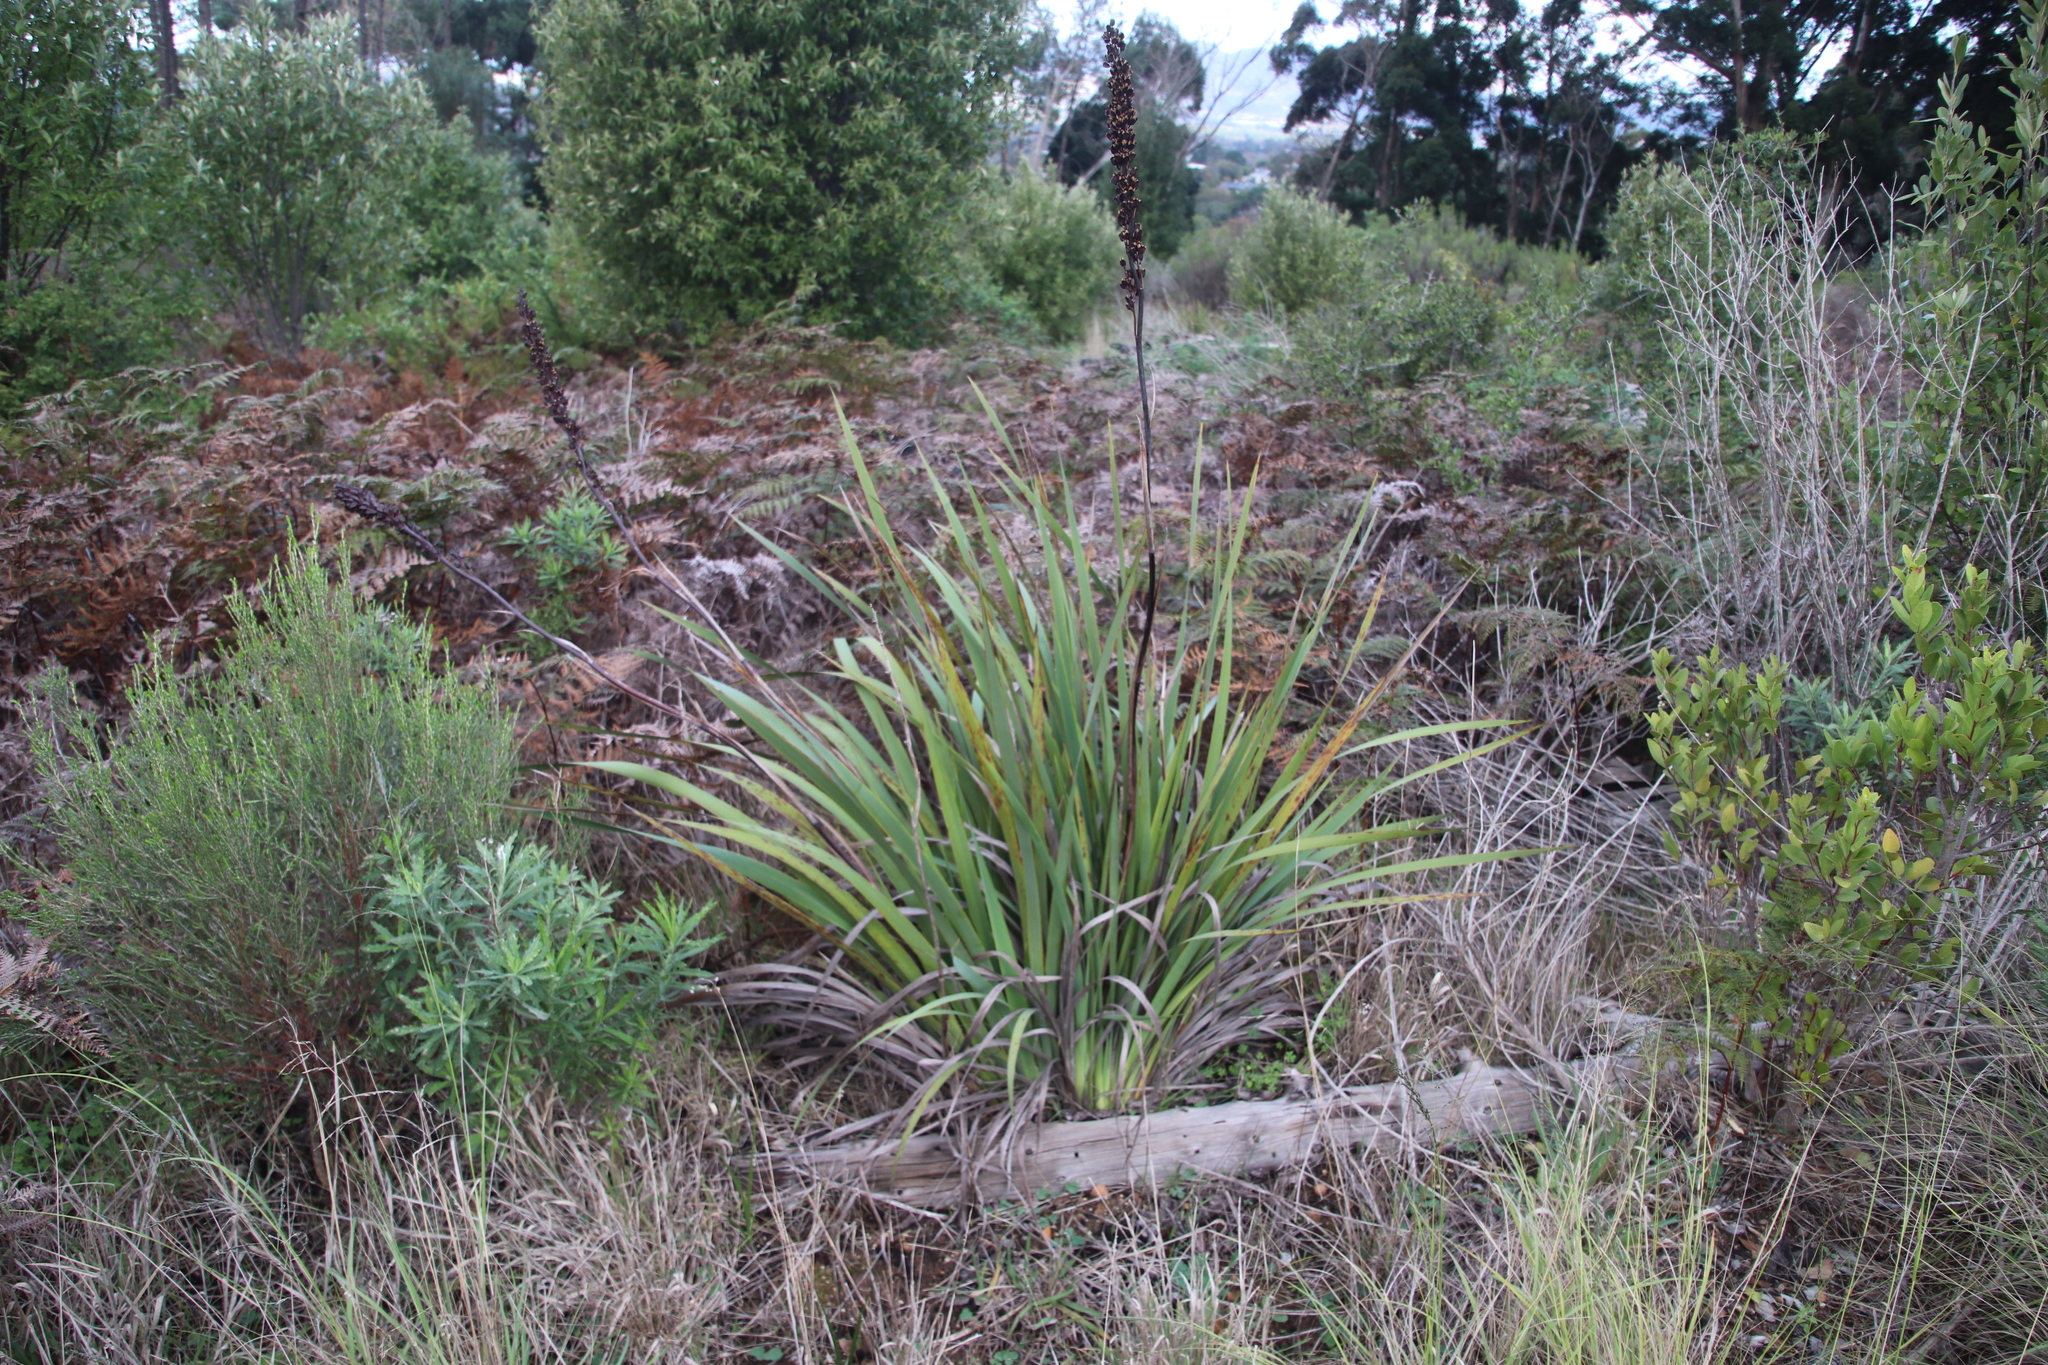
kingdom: Plantae
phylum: Tracheophyta
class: Liliopsida
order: Asparagales
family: Iridaceae
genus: Aristea
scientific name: Aristea capitata
